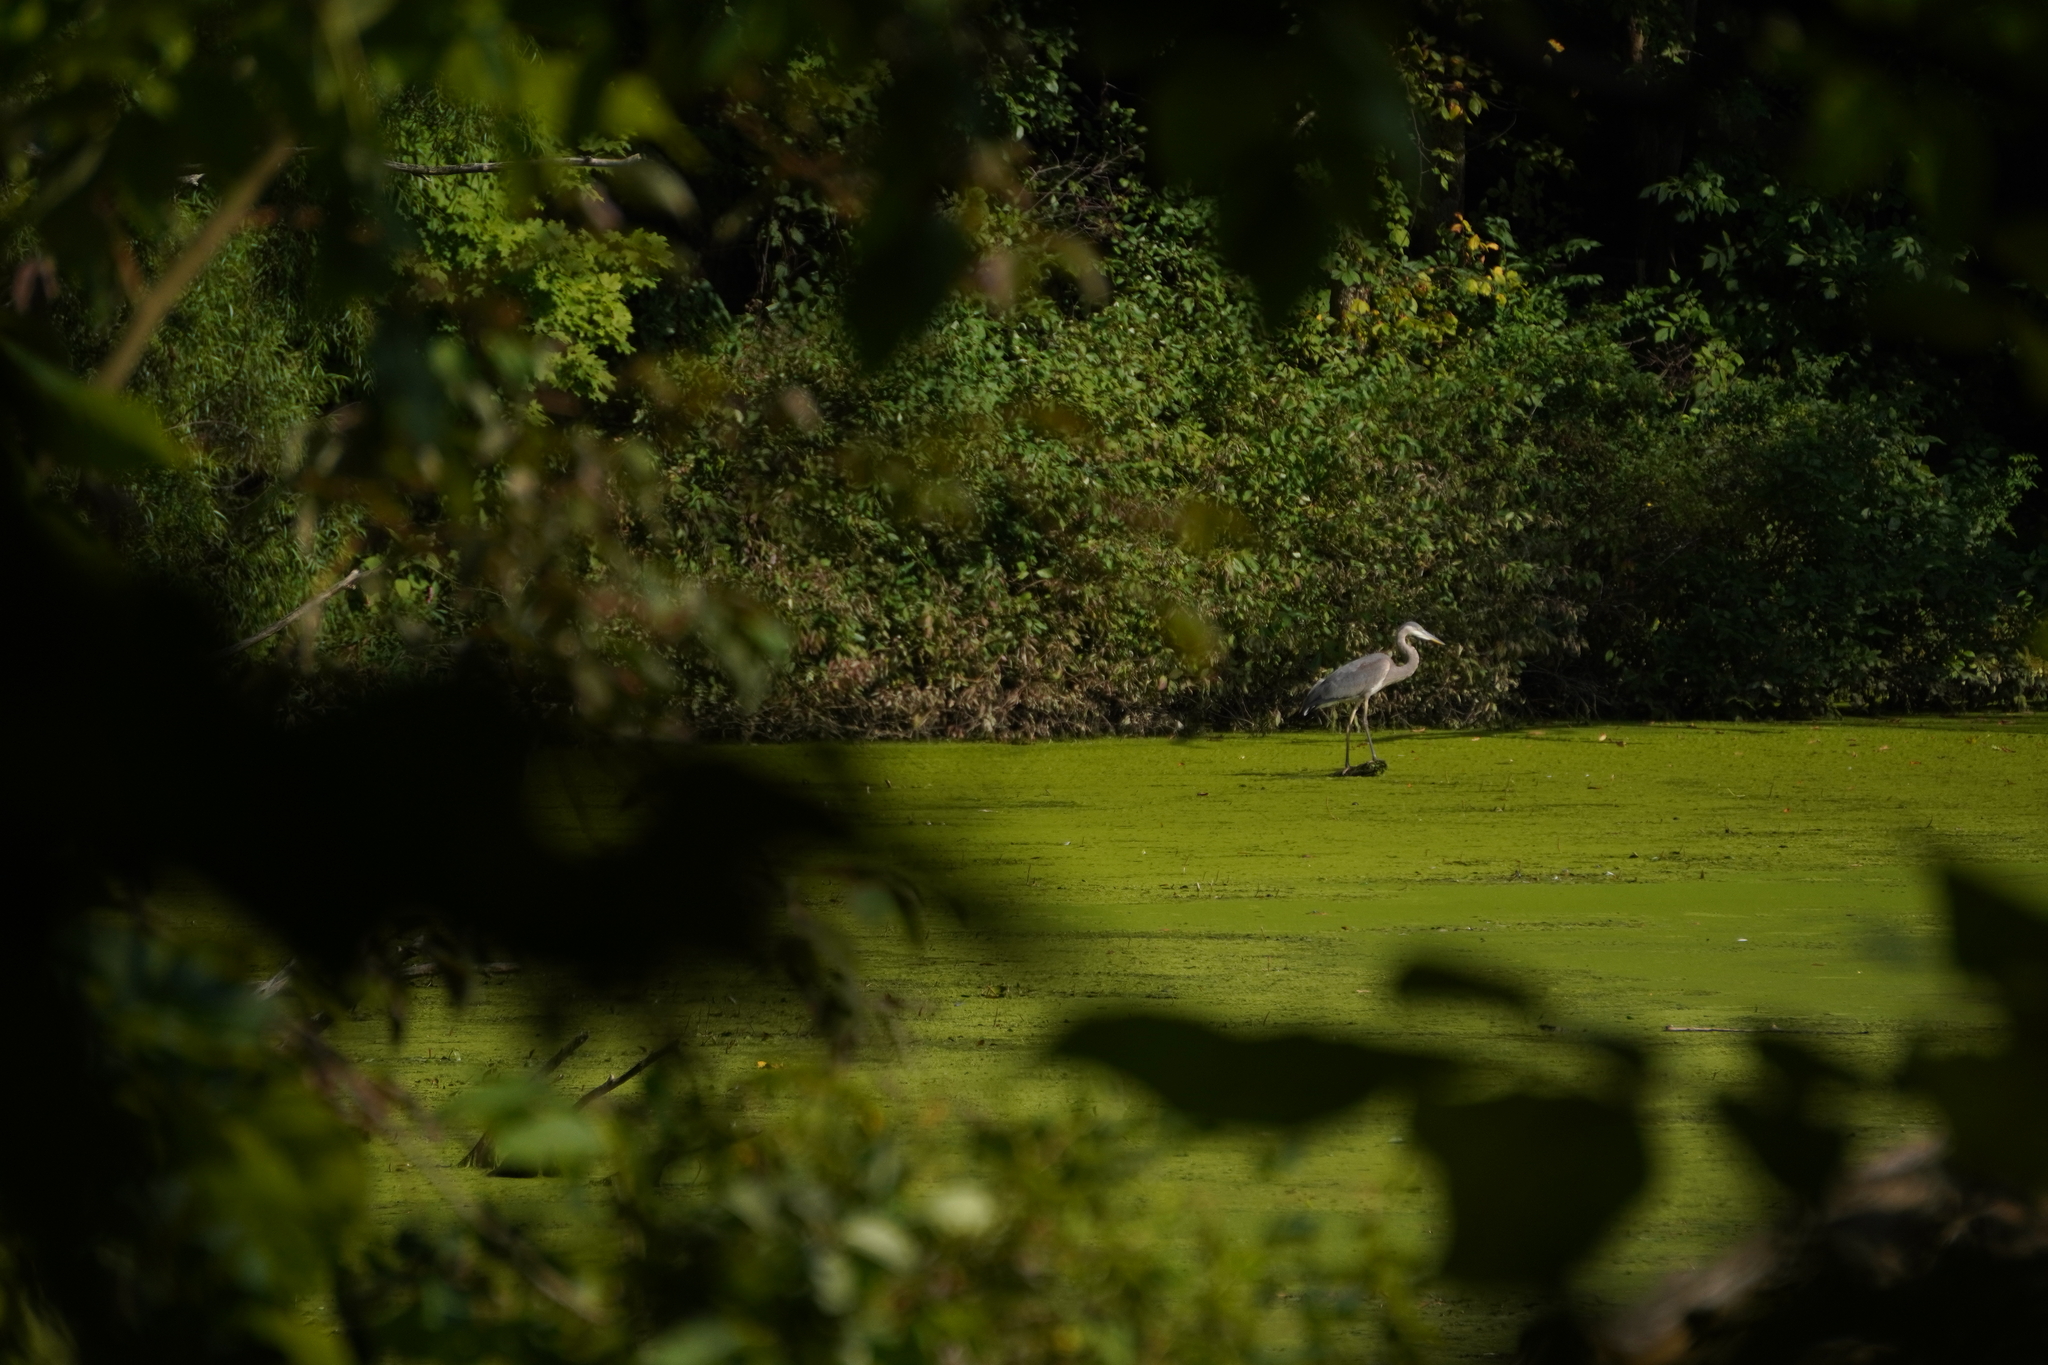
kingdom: Animalia
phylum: Chordata
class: Aves
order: Pelecaniformes
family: Ardeidae
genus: Ardea
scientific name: Ardea herodias
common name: Great blue heron
